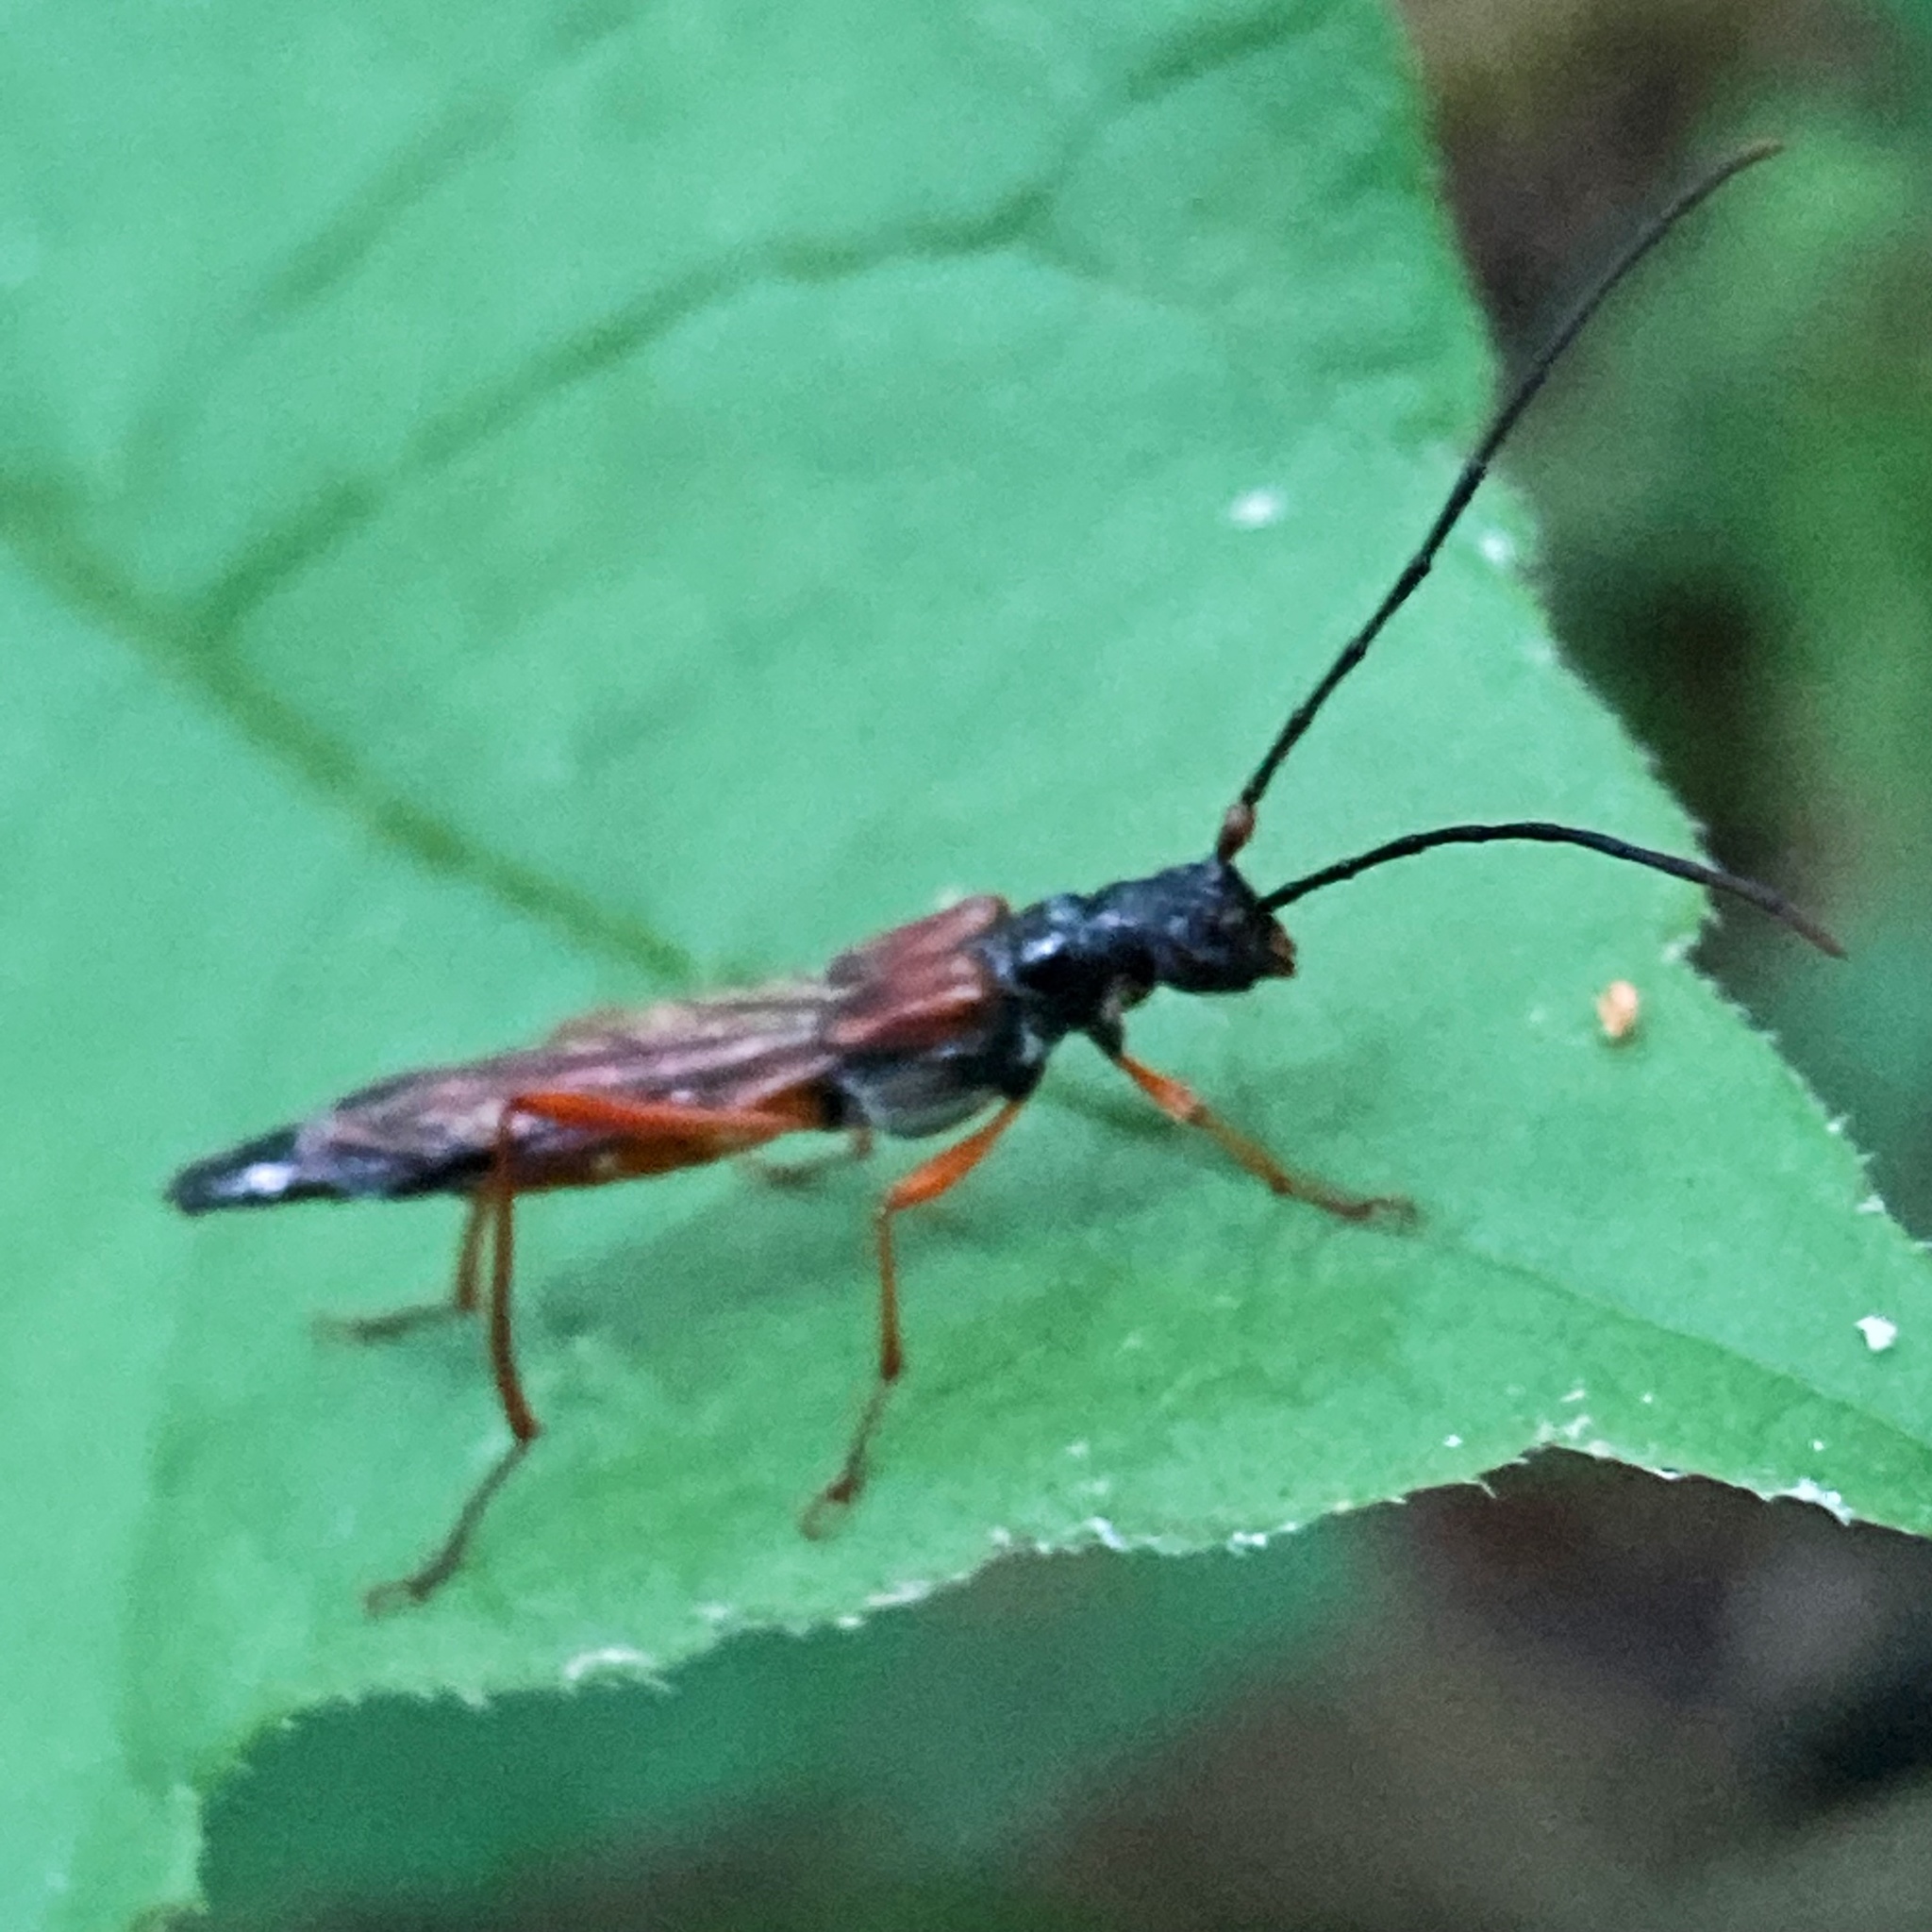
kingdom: Animalia
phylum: Arthropoda
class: Insecta
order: Coleoptera
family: Cerambycidae
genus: Necydalis
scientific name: Necydalis mellita
